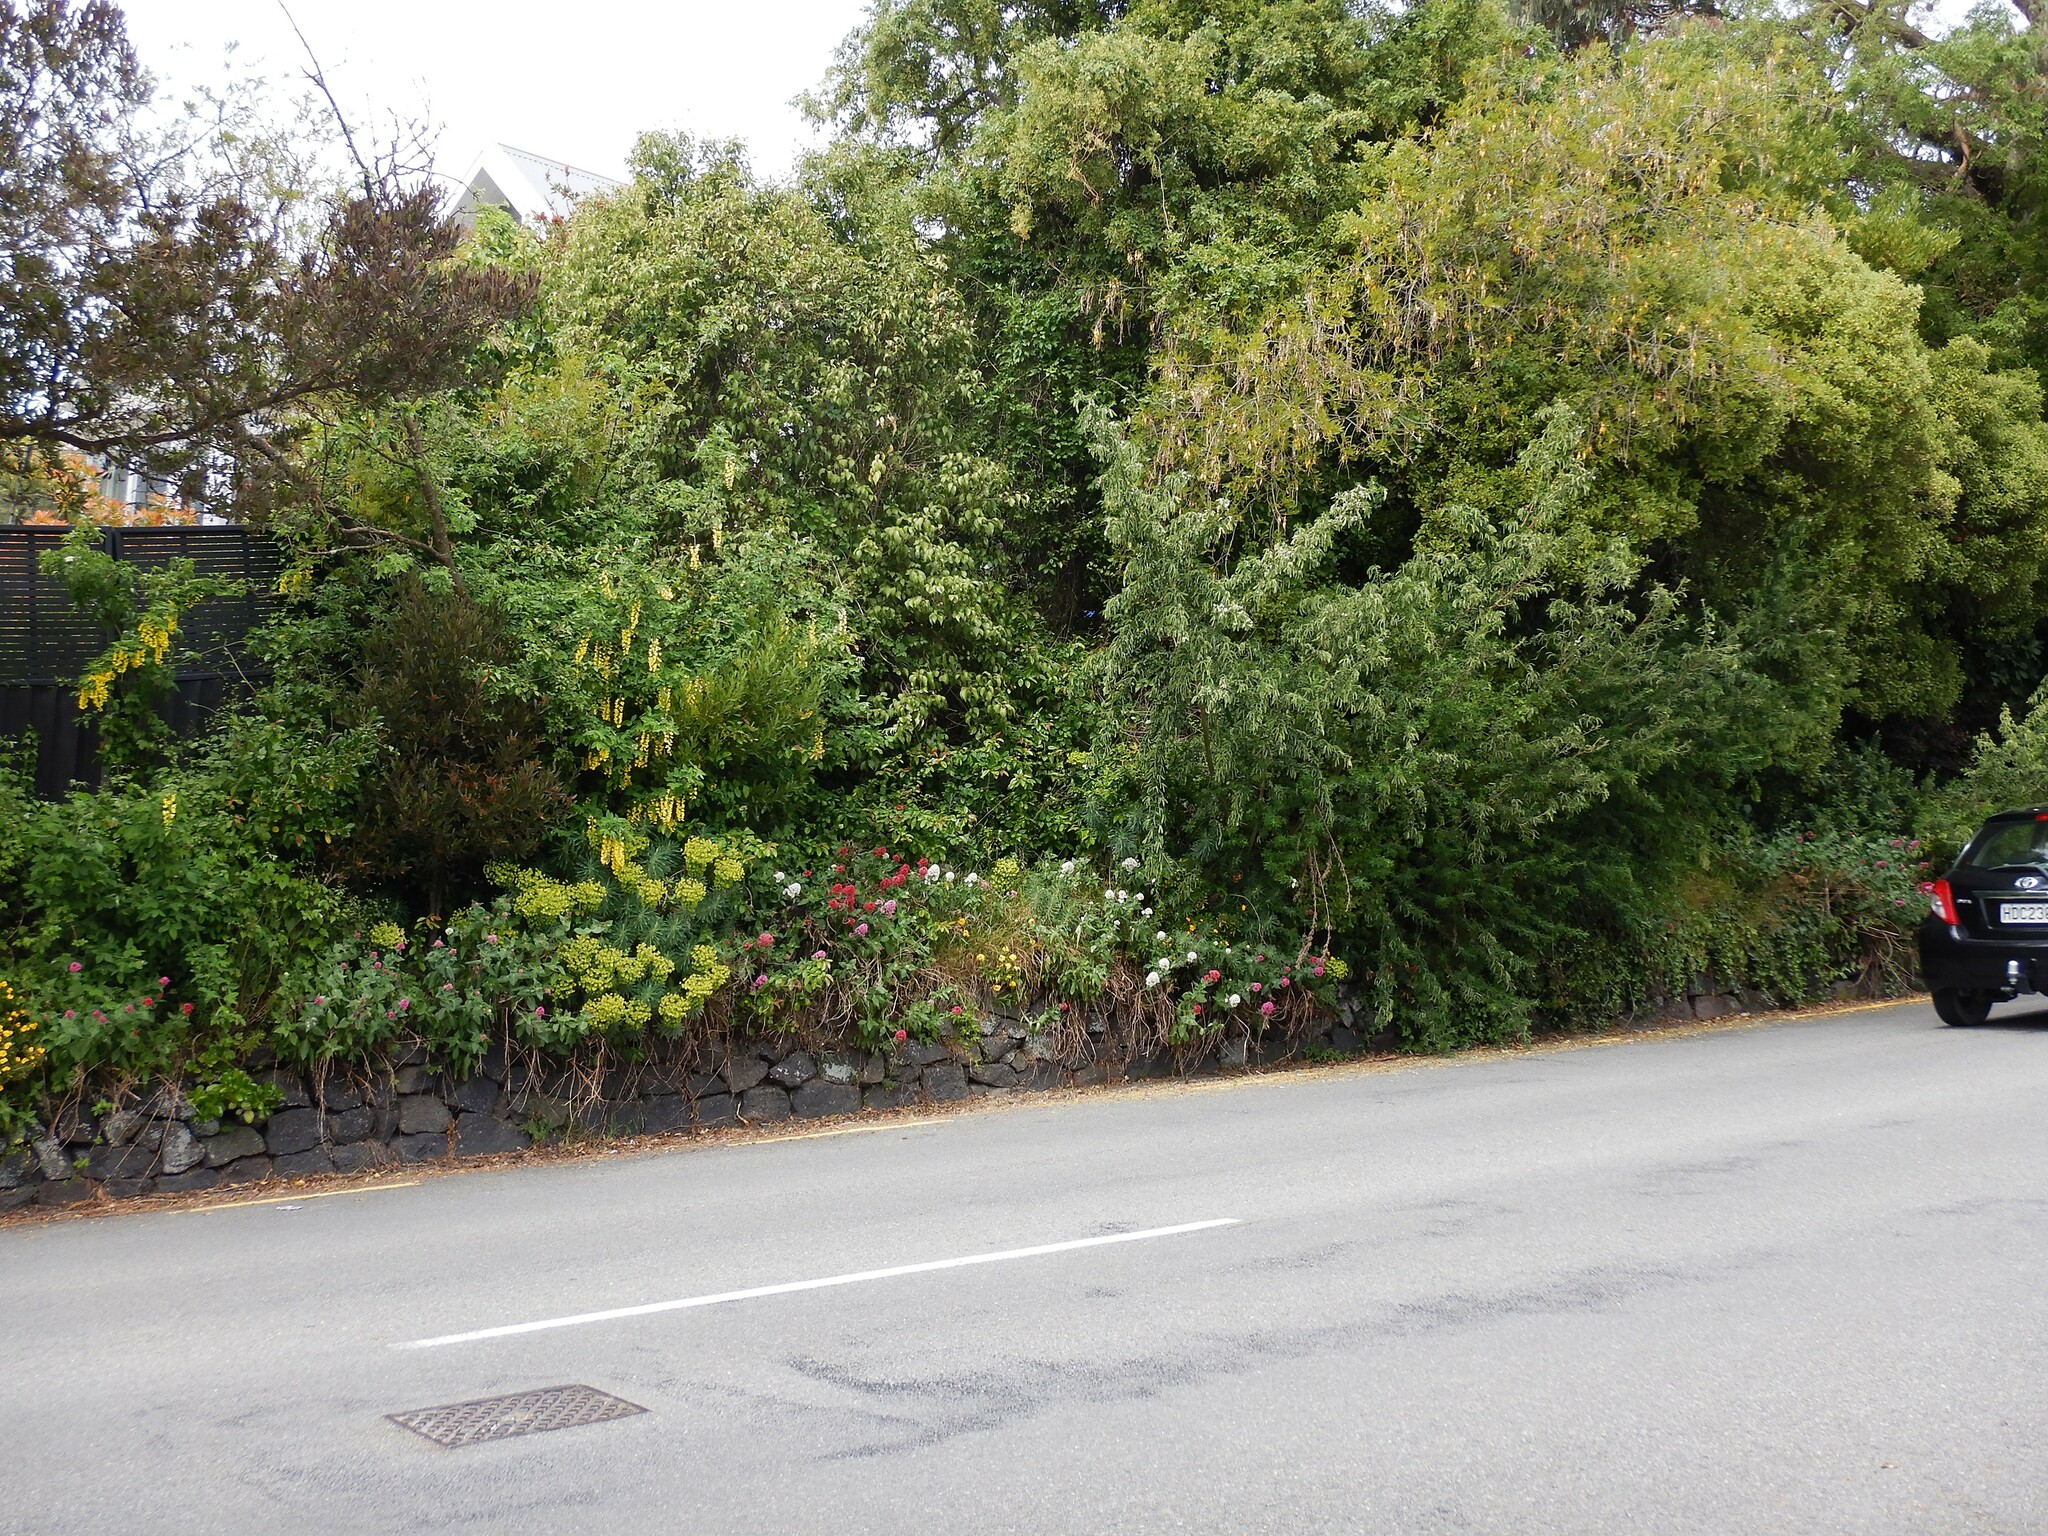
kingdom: Plantae
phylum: Tracheophyta
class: Magnoliopsida
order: Malpighiales
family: Euphorbiaceae
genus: Euphorbia
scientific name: Euphorbia characias
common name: Mediterranean spurge
